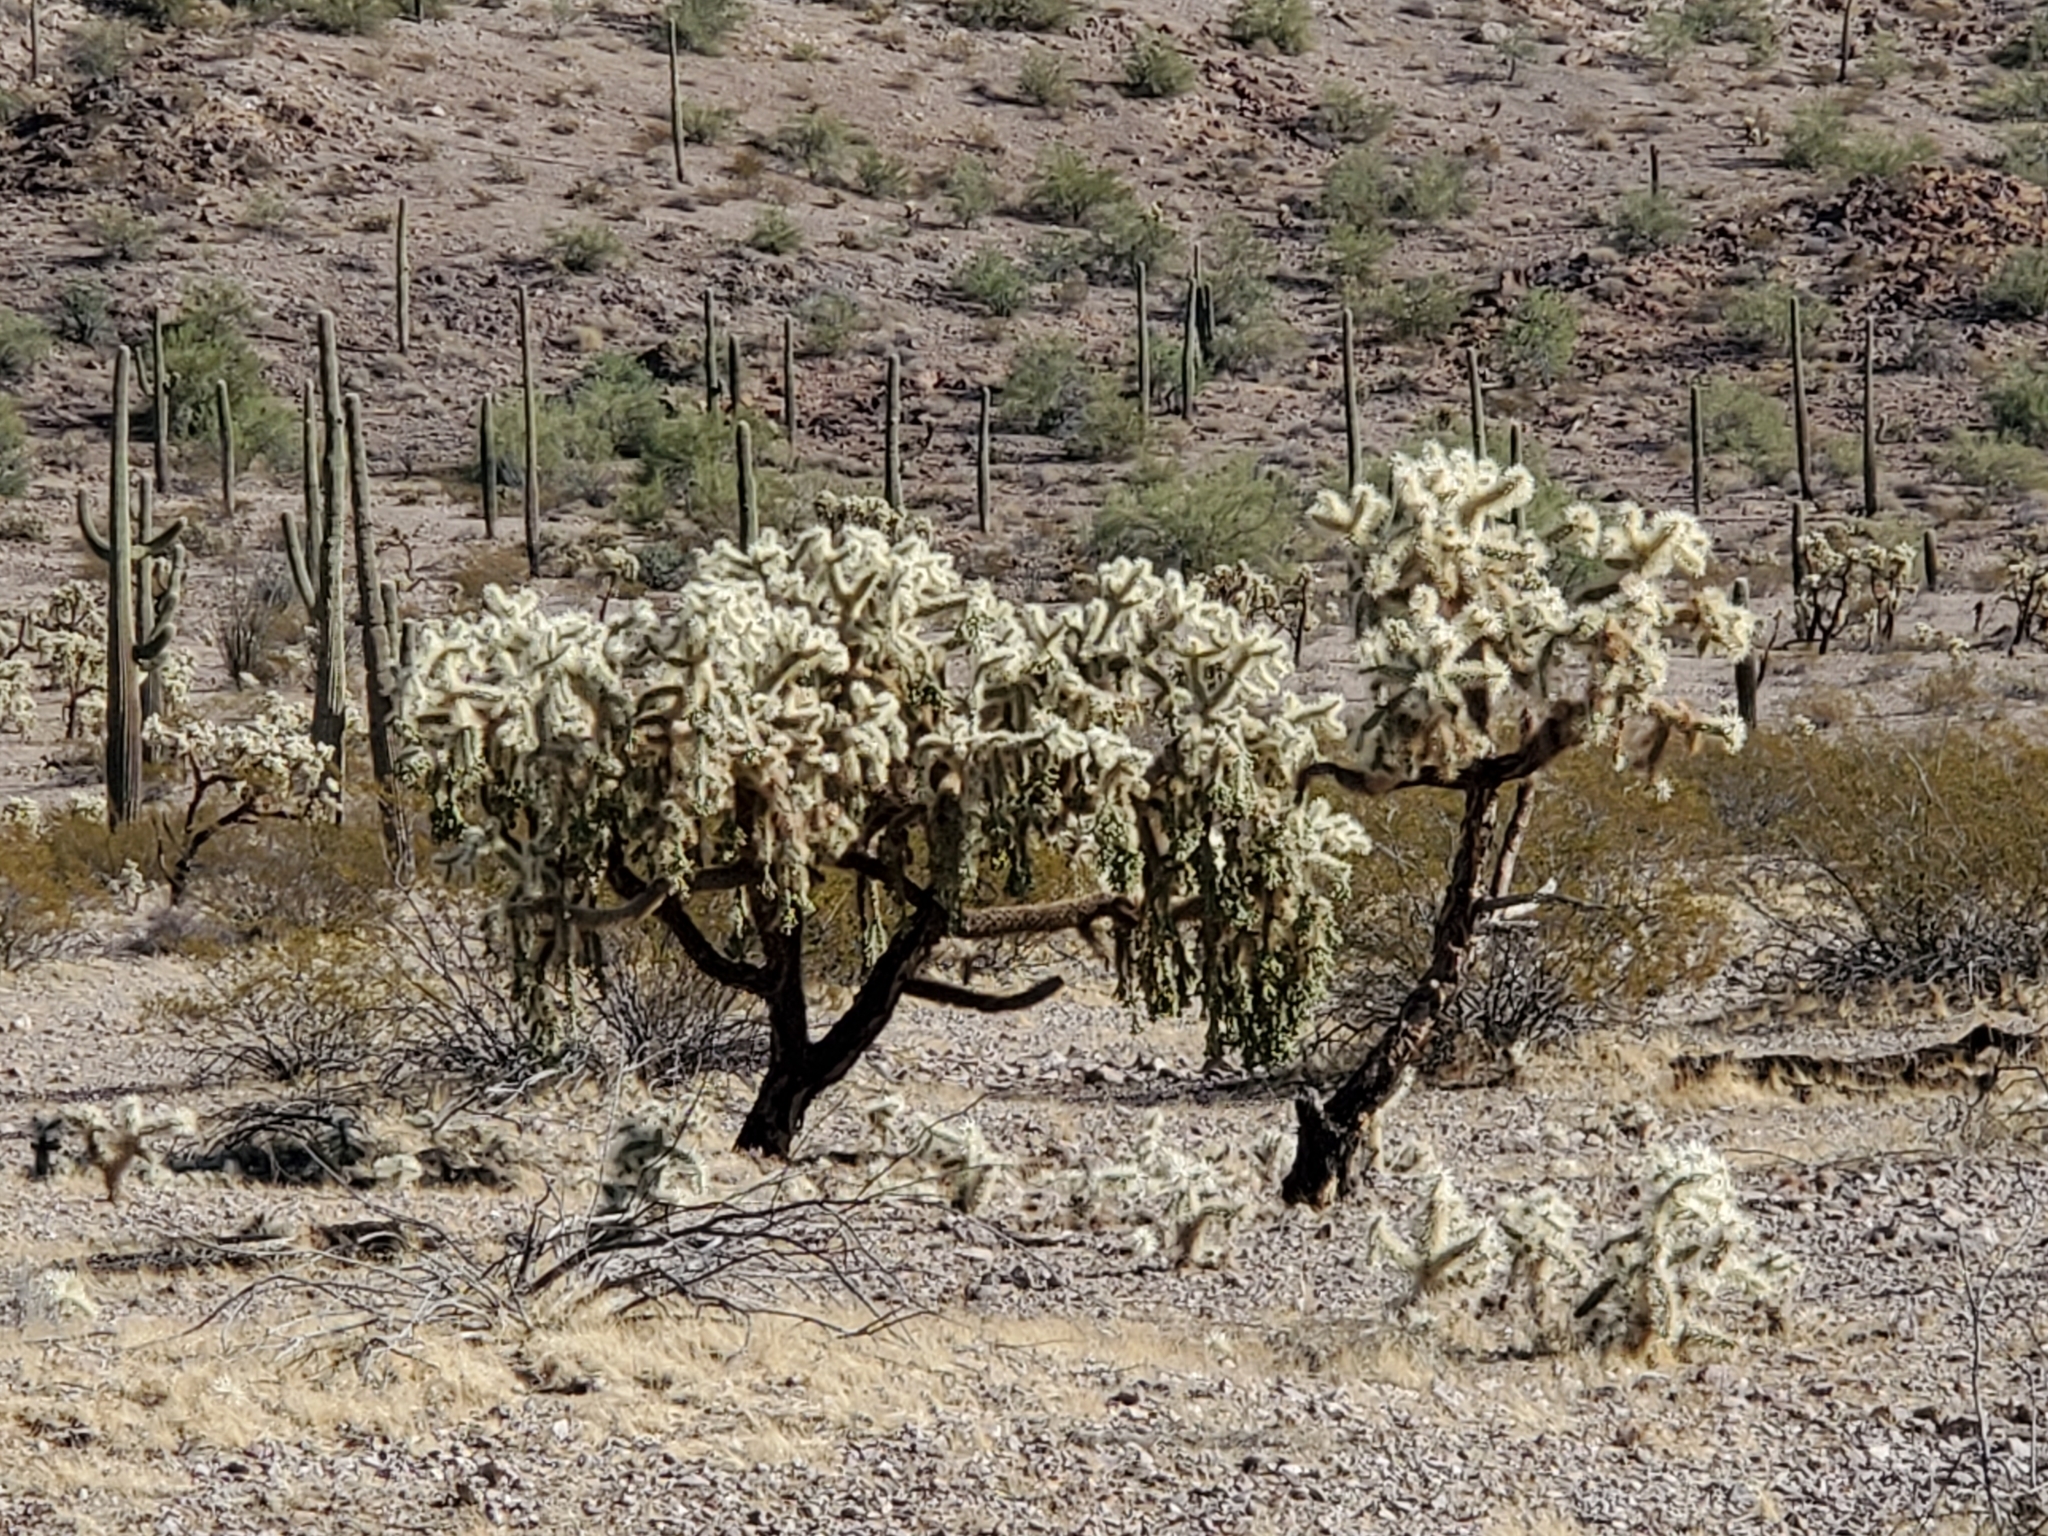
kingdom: Plantae
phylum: Tracheophyta
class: Magnoliopsida
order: Caryophyllales
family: Cactaceae
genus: Cylindropuntia
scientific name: Cylindropuntia fulgida
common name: Jumping cholla
